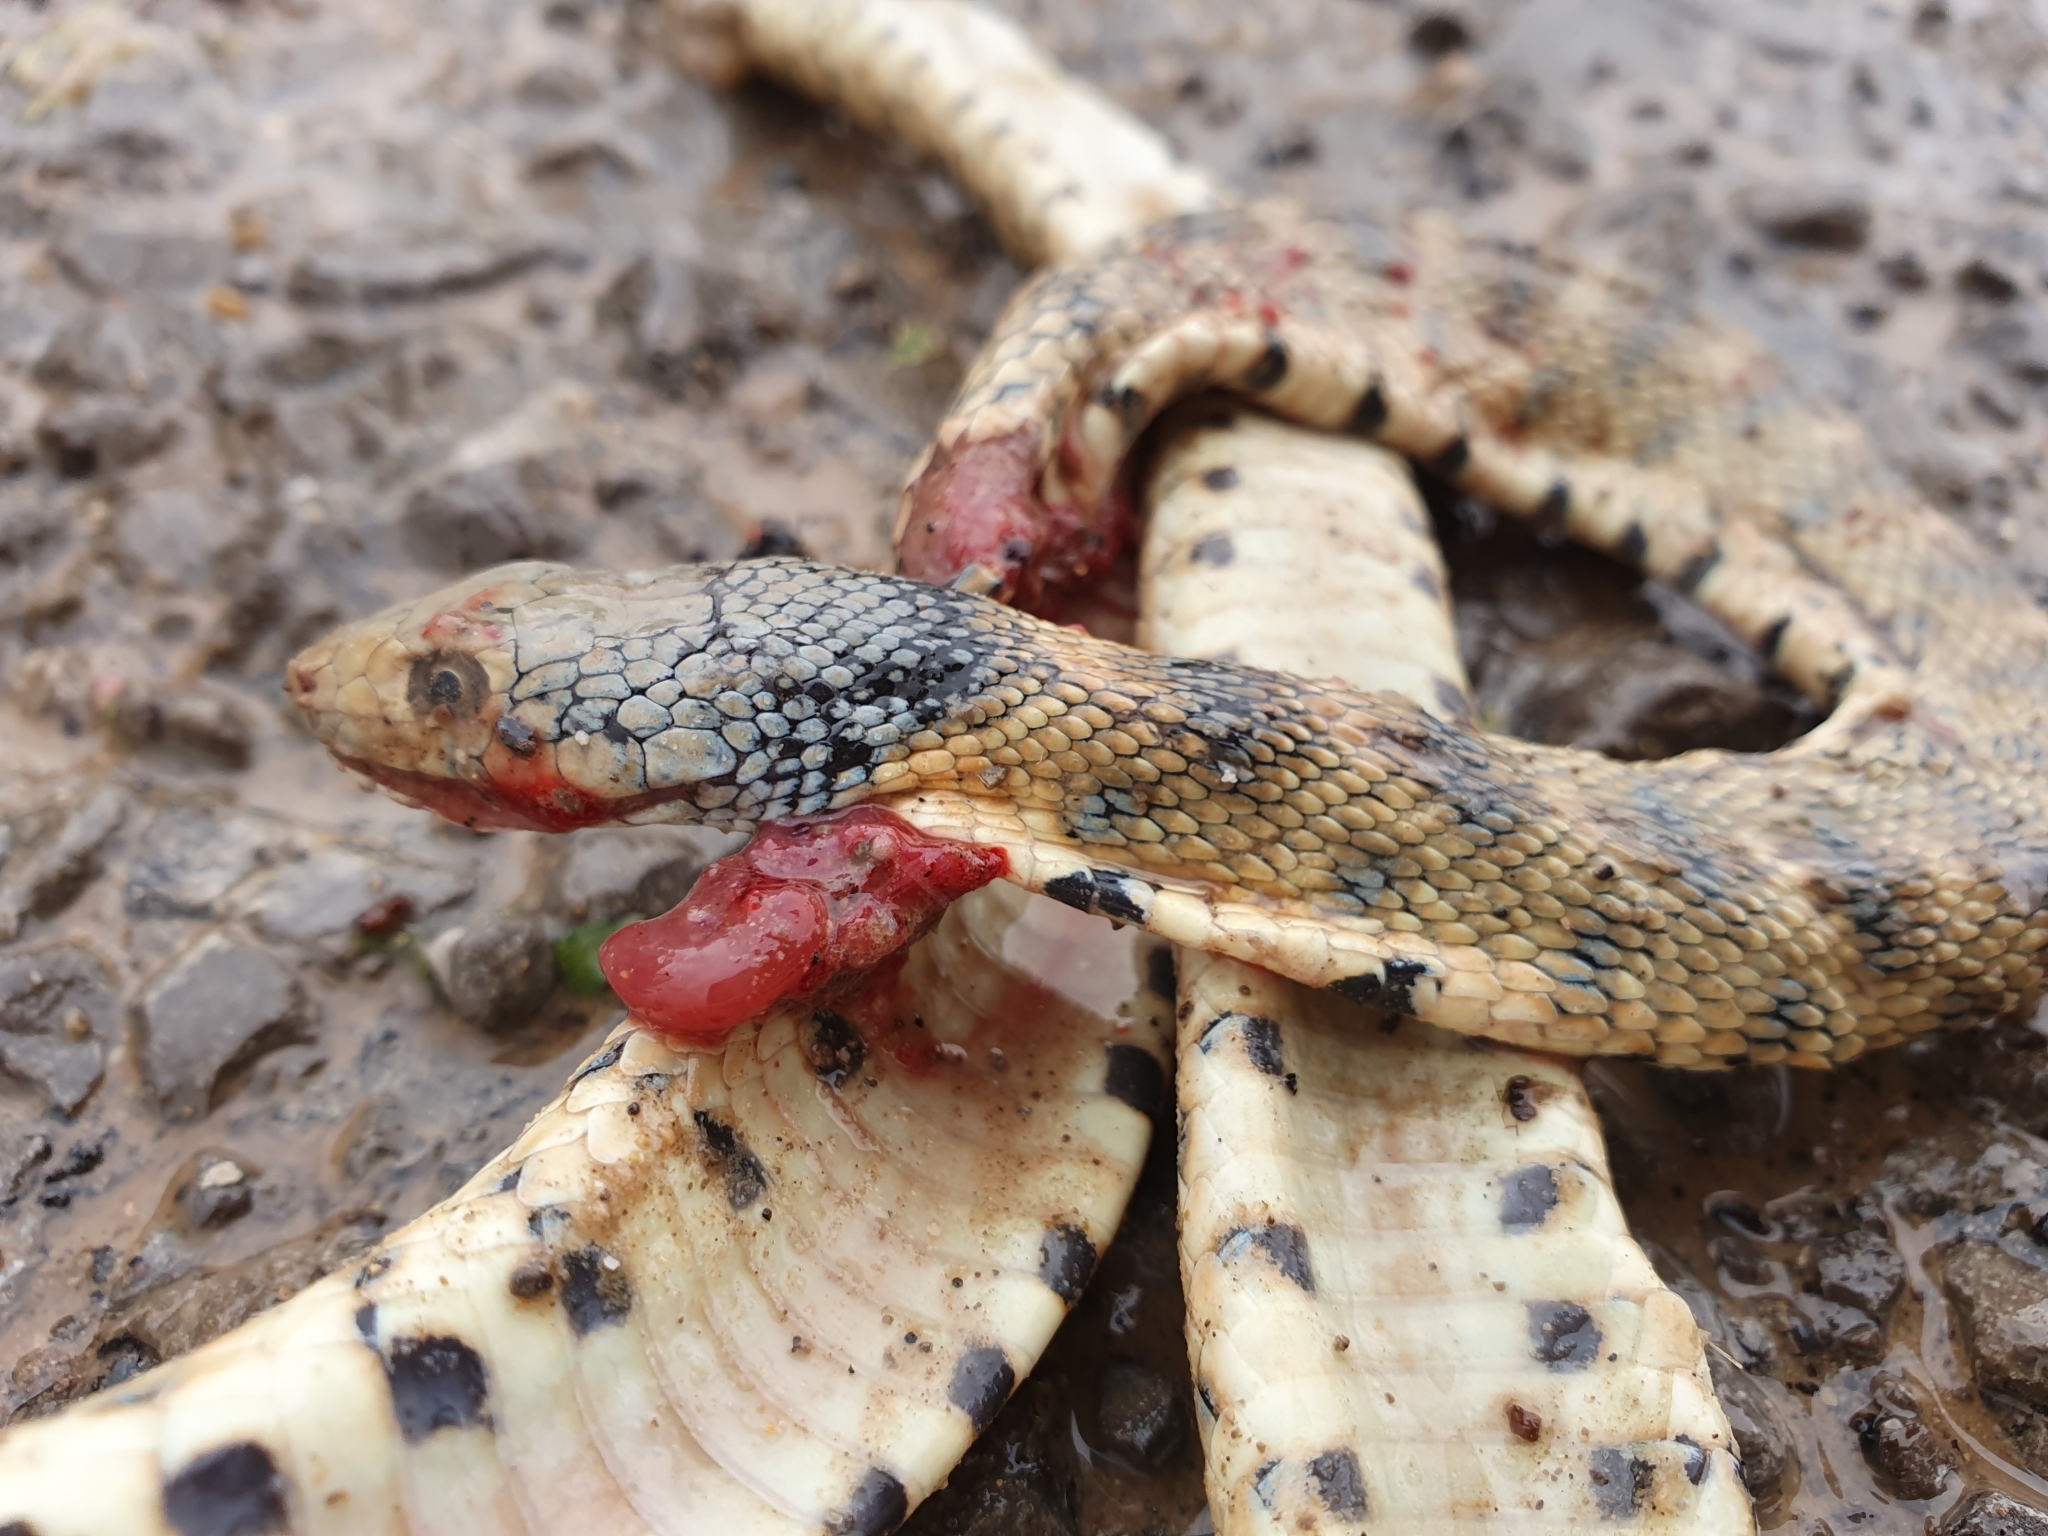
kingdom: Animalia
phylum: Chordata
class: Squamata
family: Colubridae
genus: Hemorrhois
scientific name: Hemorrhois algirus
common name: Algerian whip snake
